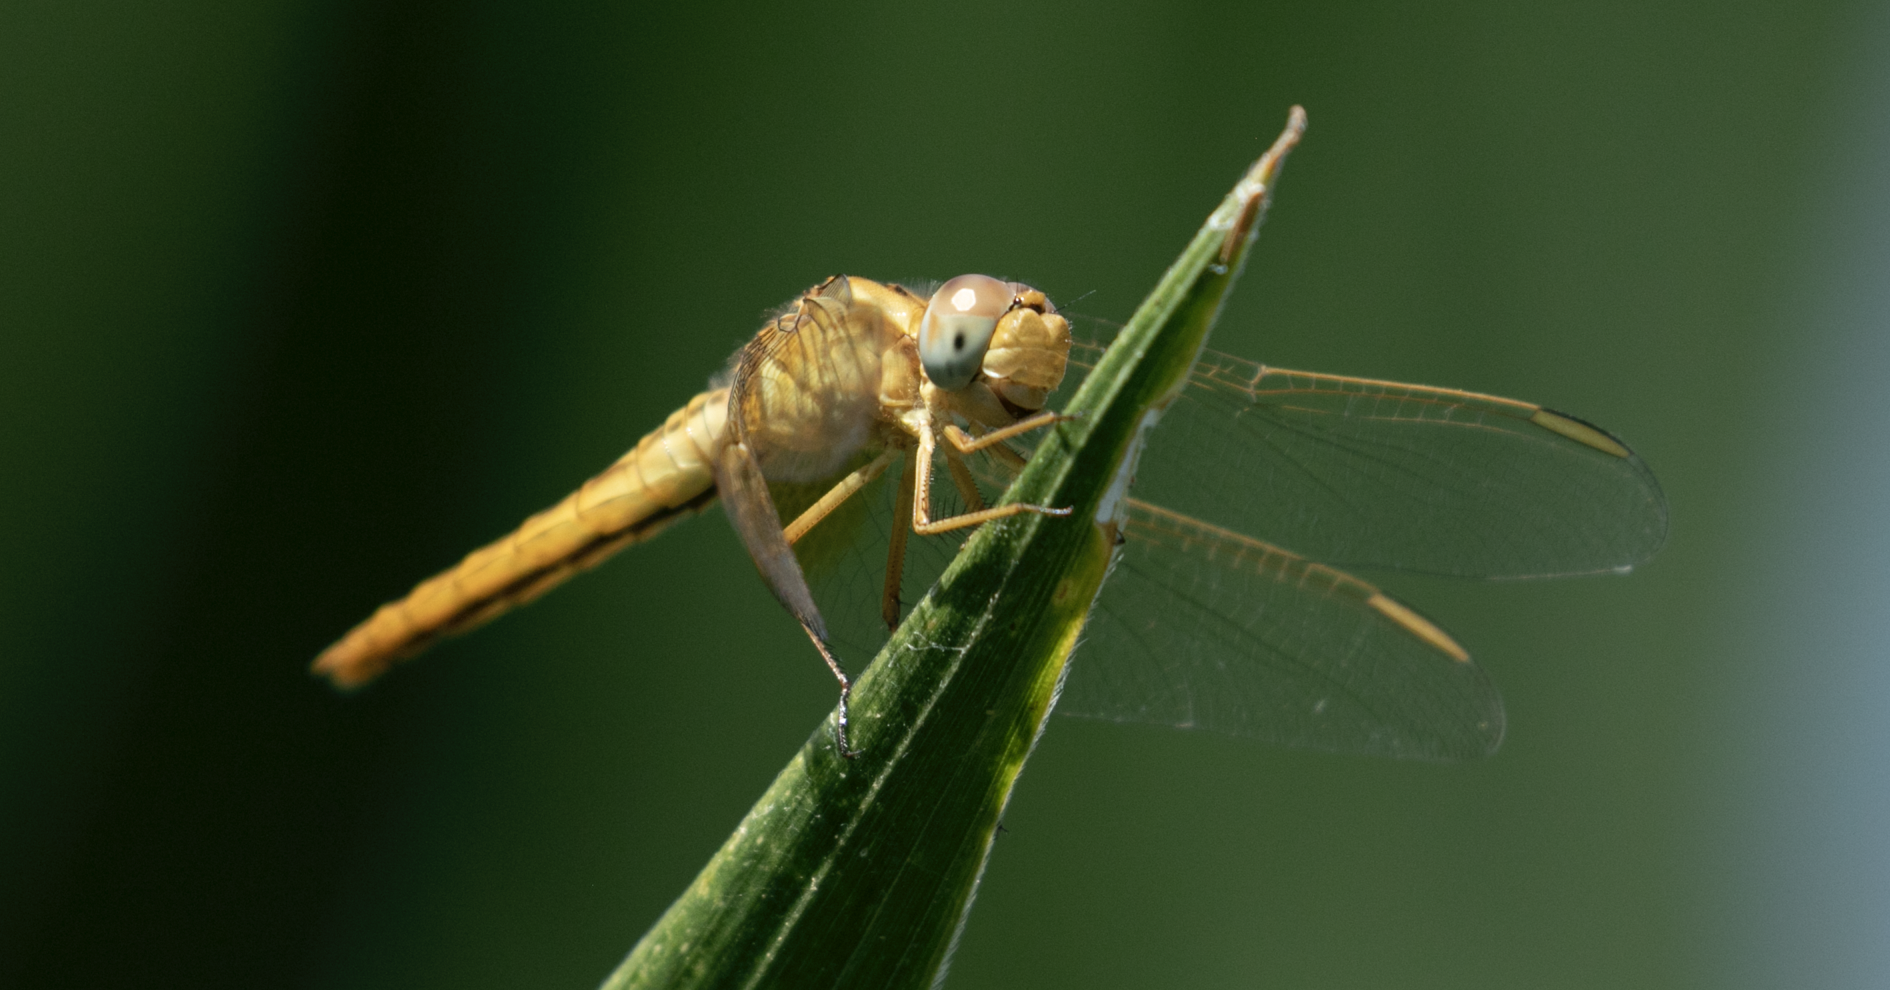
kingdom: Animalia
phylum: Arthropoda
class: Insecta
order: Odonata
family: Libellulidae
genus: Crocothemis
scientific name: Crocothemis erythraea
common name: Scarlet dragonfly
